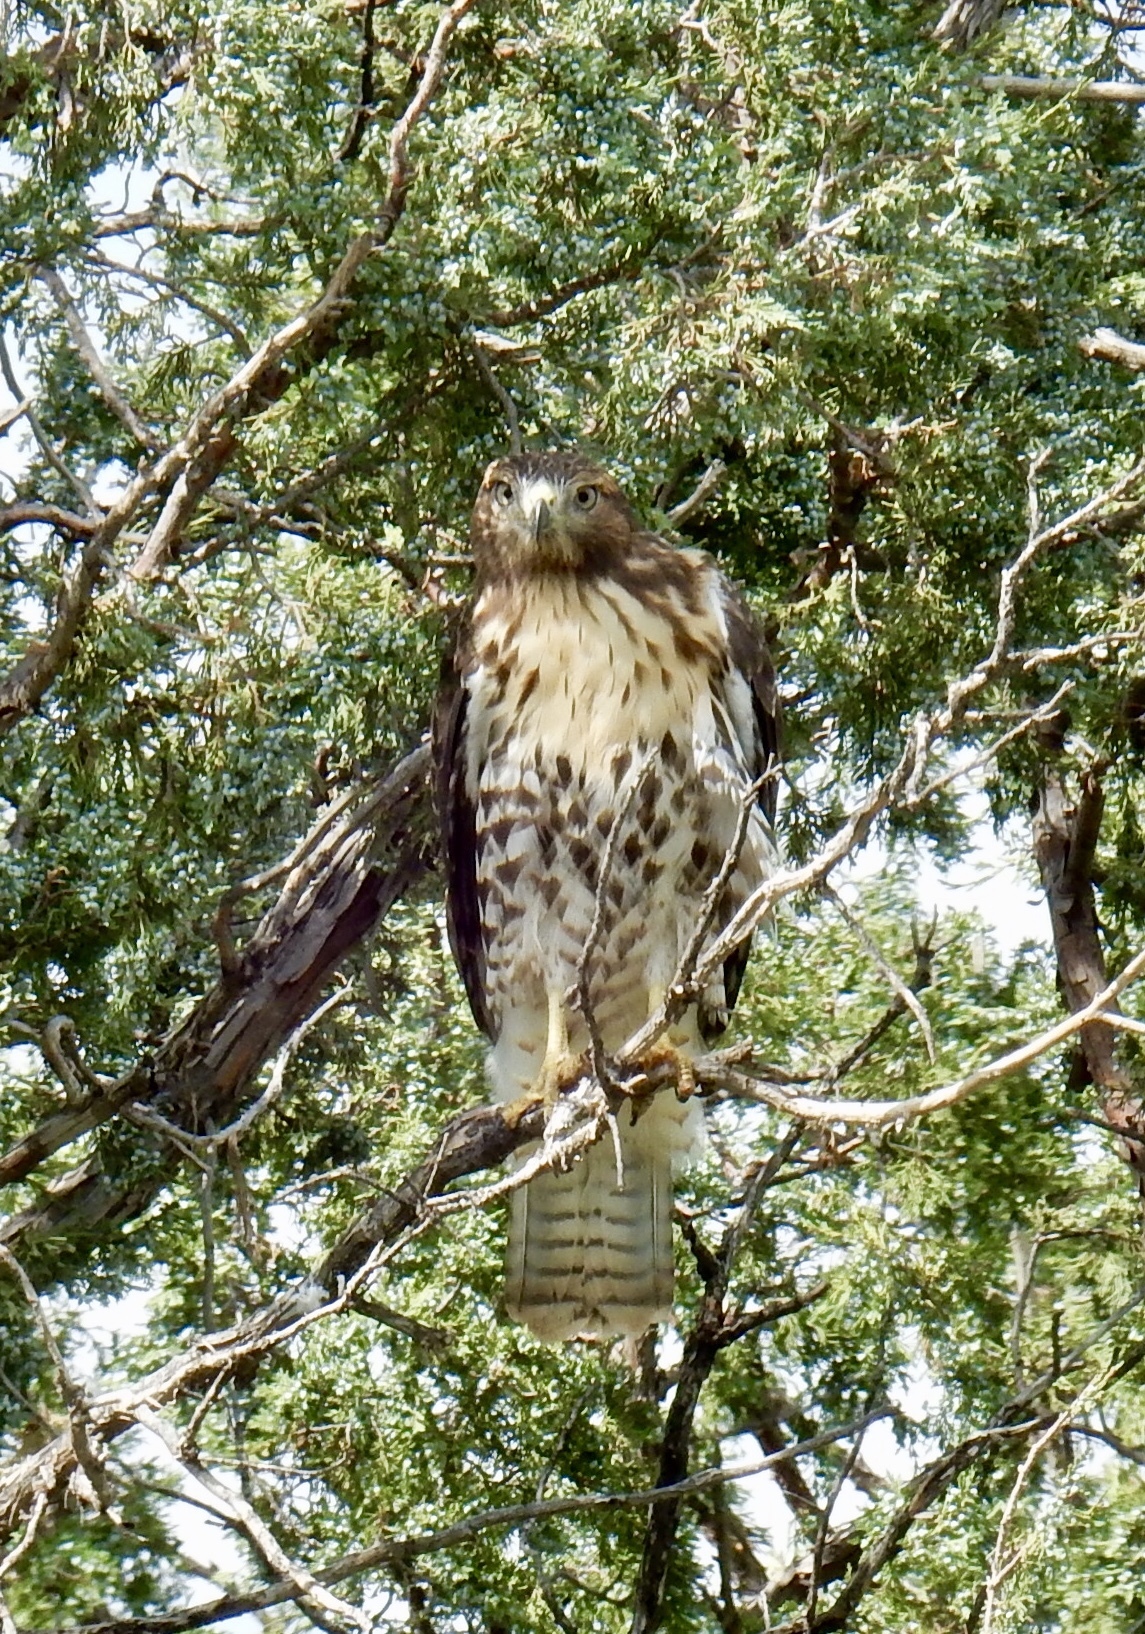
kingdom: Animalia
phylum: Chordata
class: Aves
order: Accipitriformes
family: Accipitridae
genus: Buteo
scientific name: Buteo jamaicensis
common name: Red-tailed hawk
